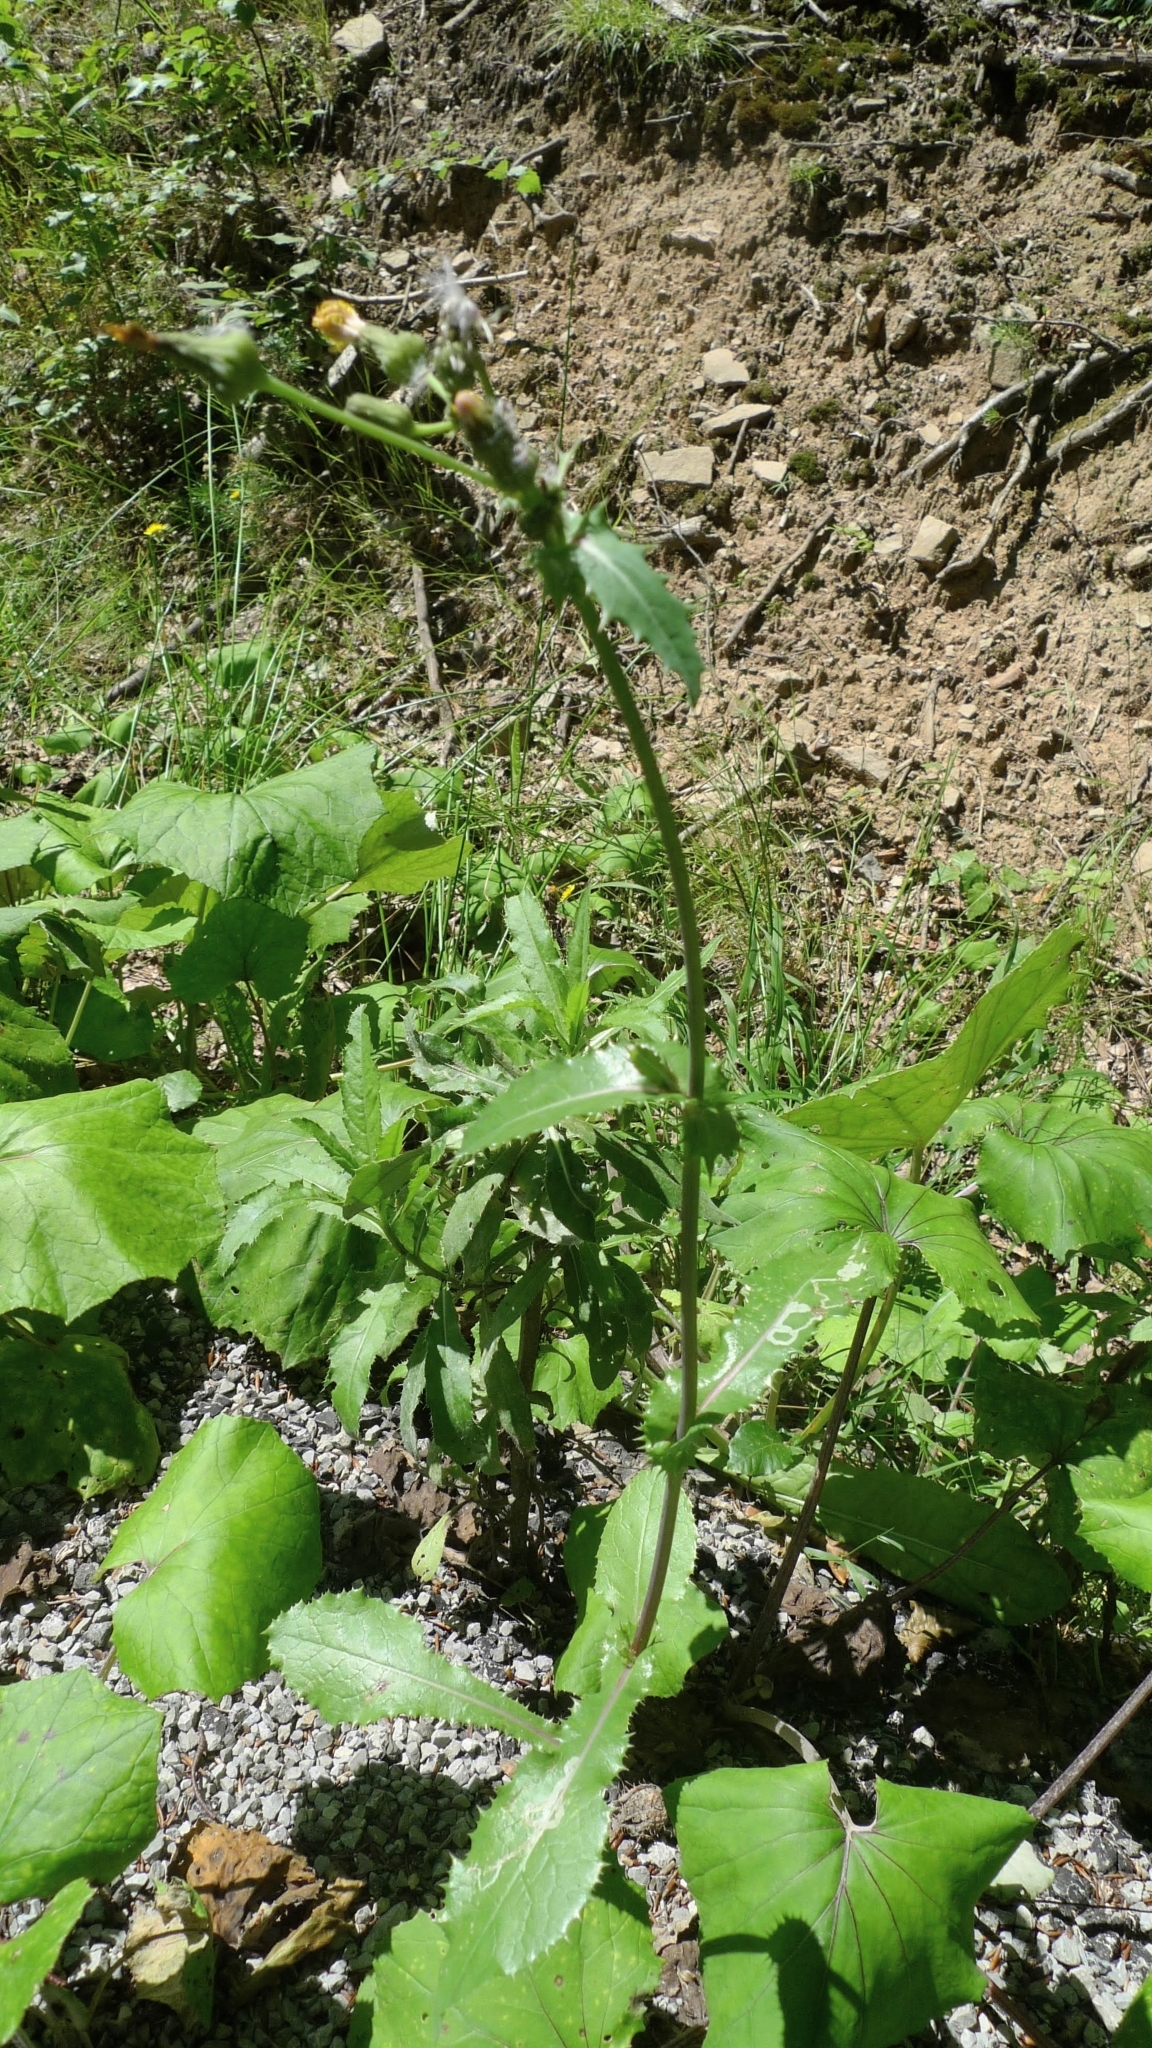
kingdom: Plantae
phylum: Tracheophyta
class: Magnoliopsida
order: Asterales
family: Asteraceae
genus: Sonchus
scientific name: Sonchus asper
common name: Prickly sow-thistle
